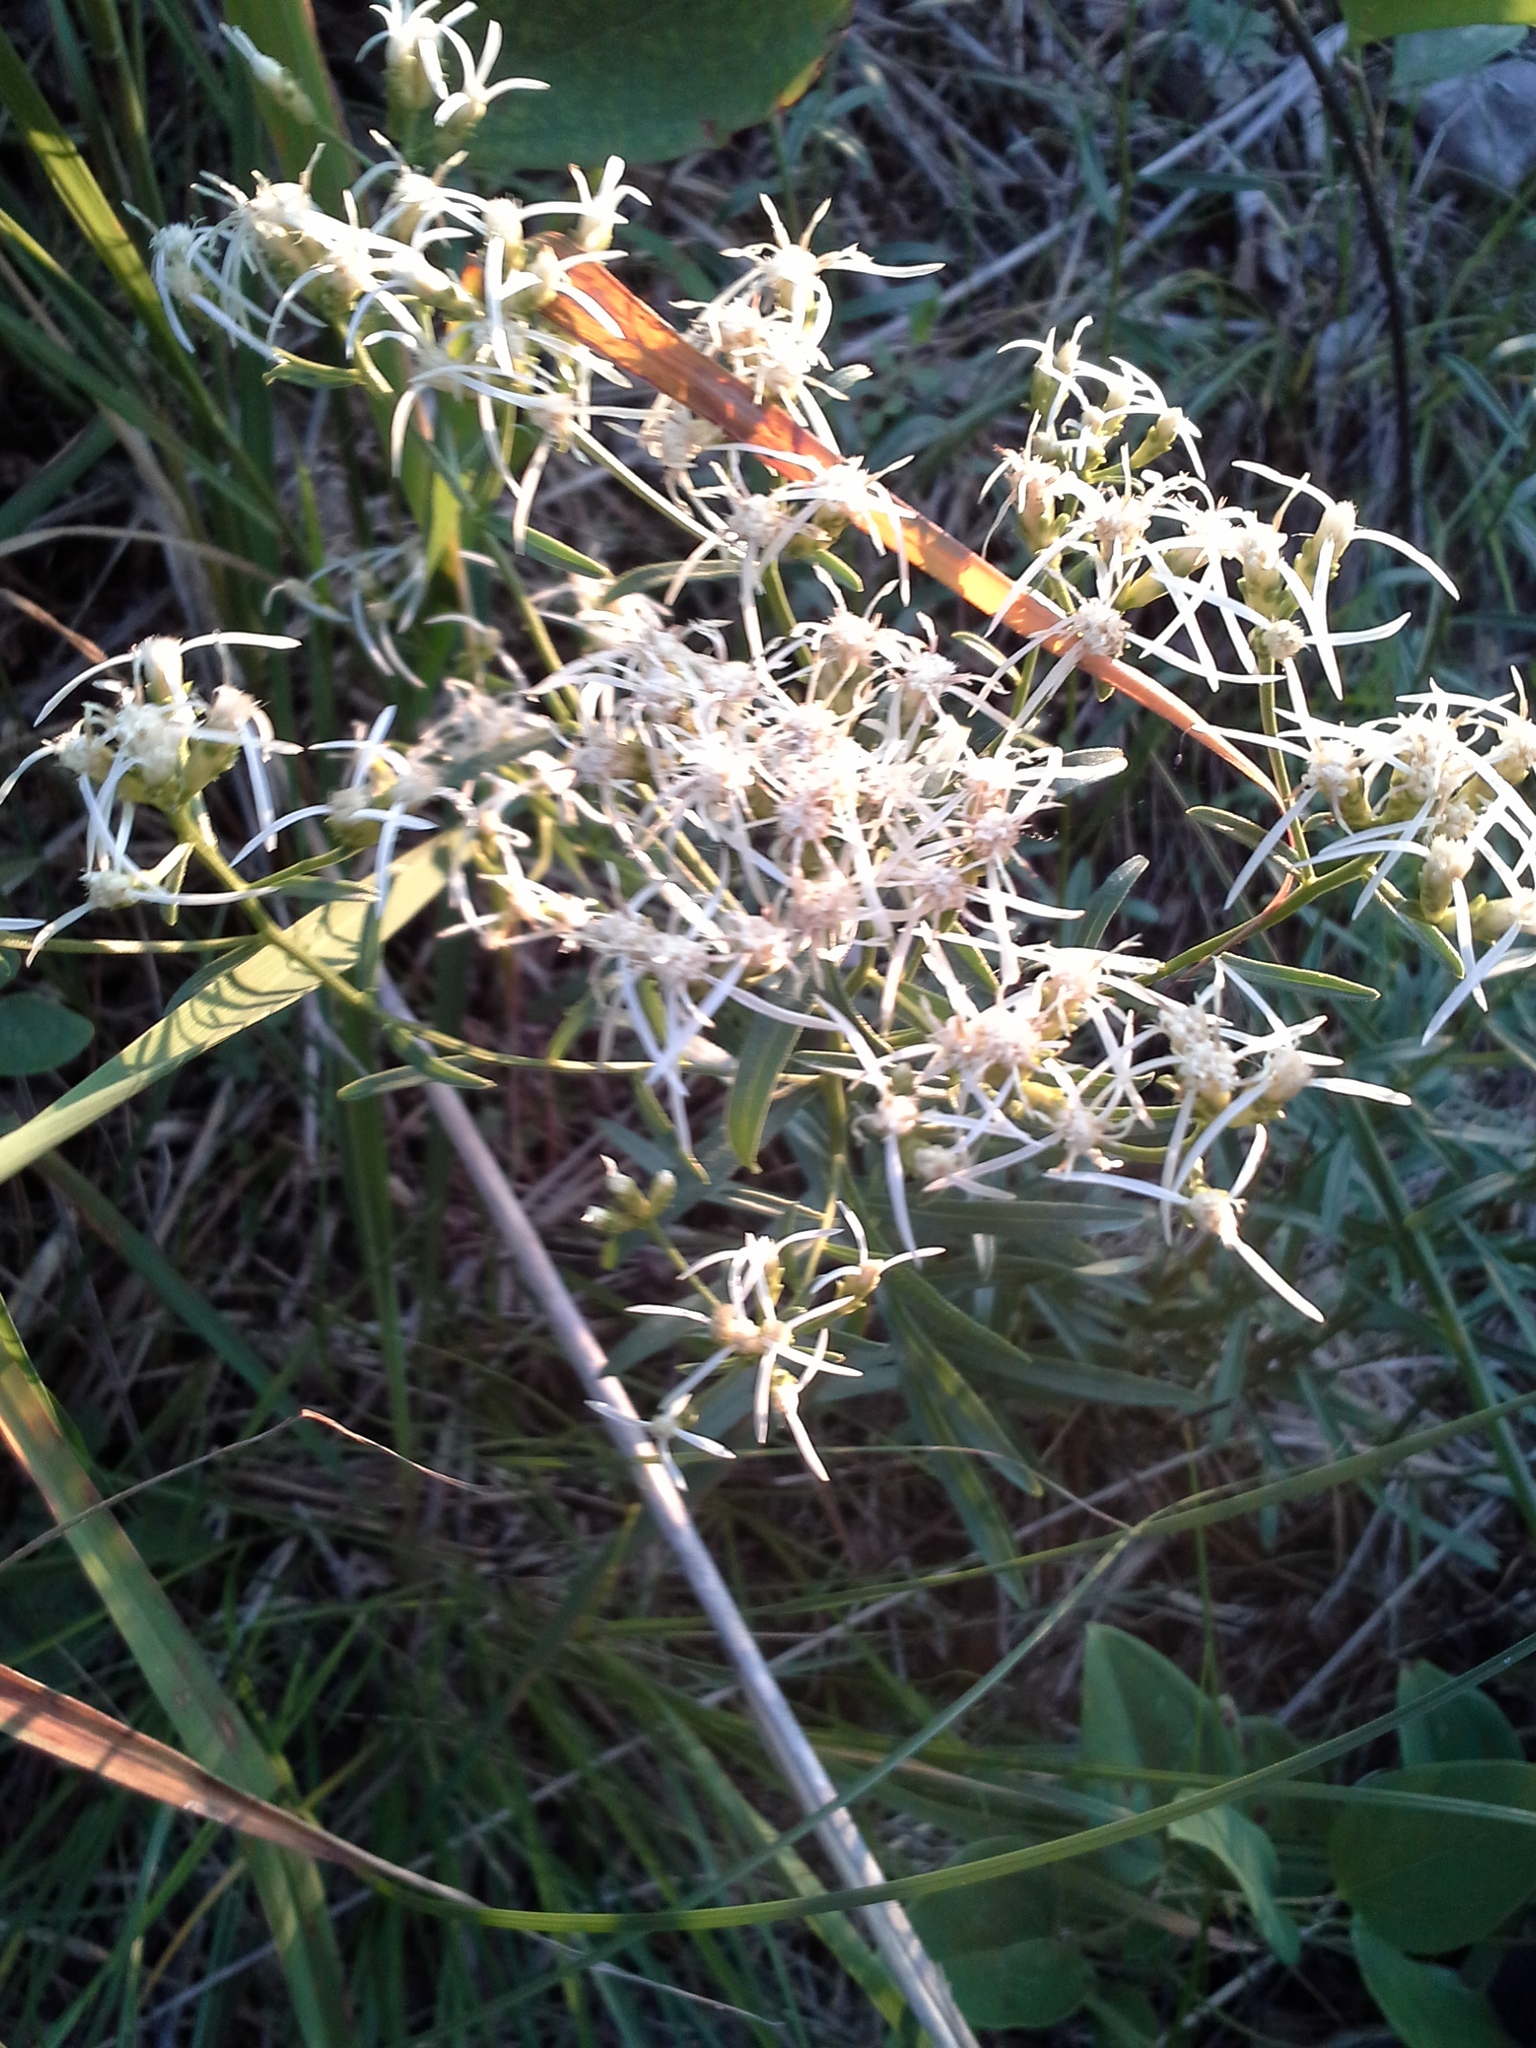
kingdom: Plantae
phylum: Tracheophyta
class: Magnoliopsida
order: Asterales
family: Asteraceae
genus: Sericocarpus
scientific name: Sericocarpus linifolius
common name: Narrow-leaf aster
